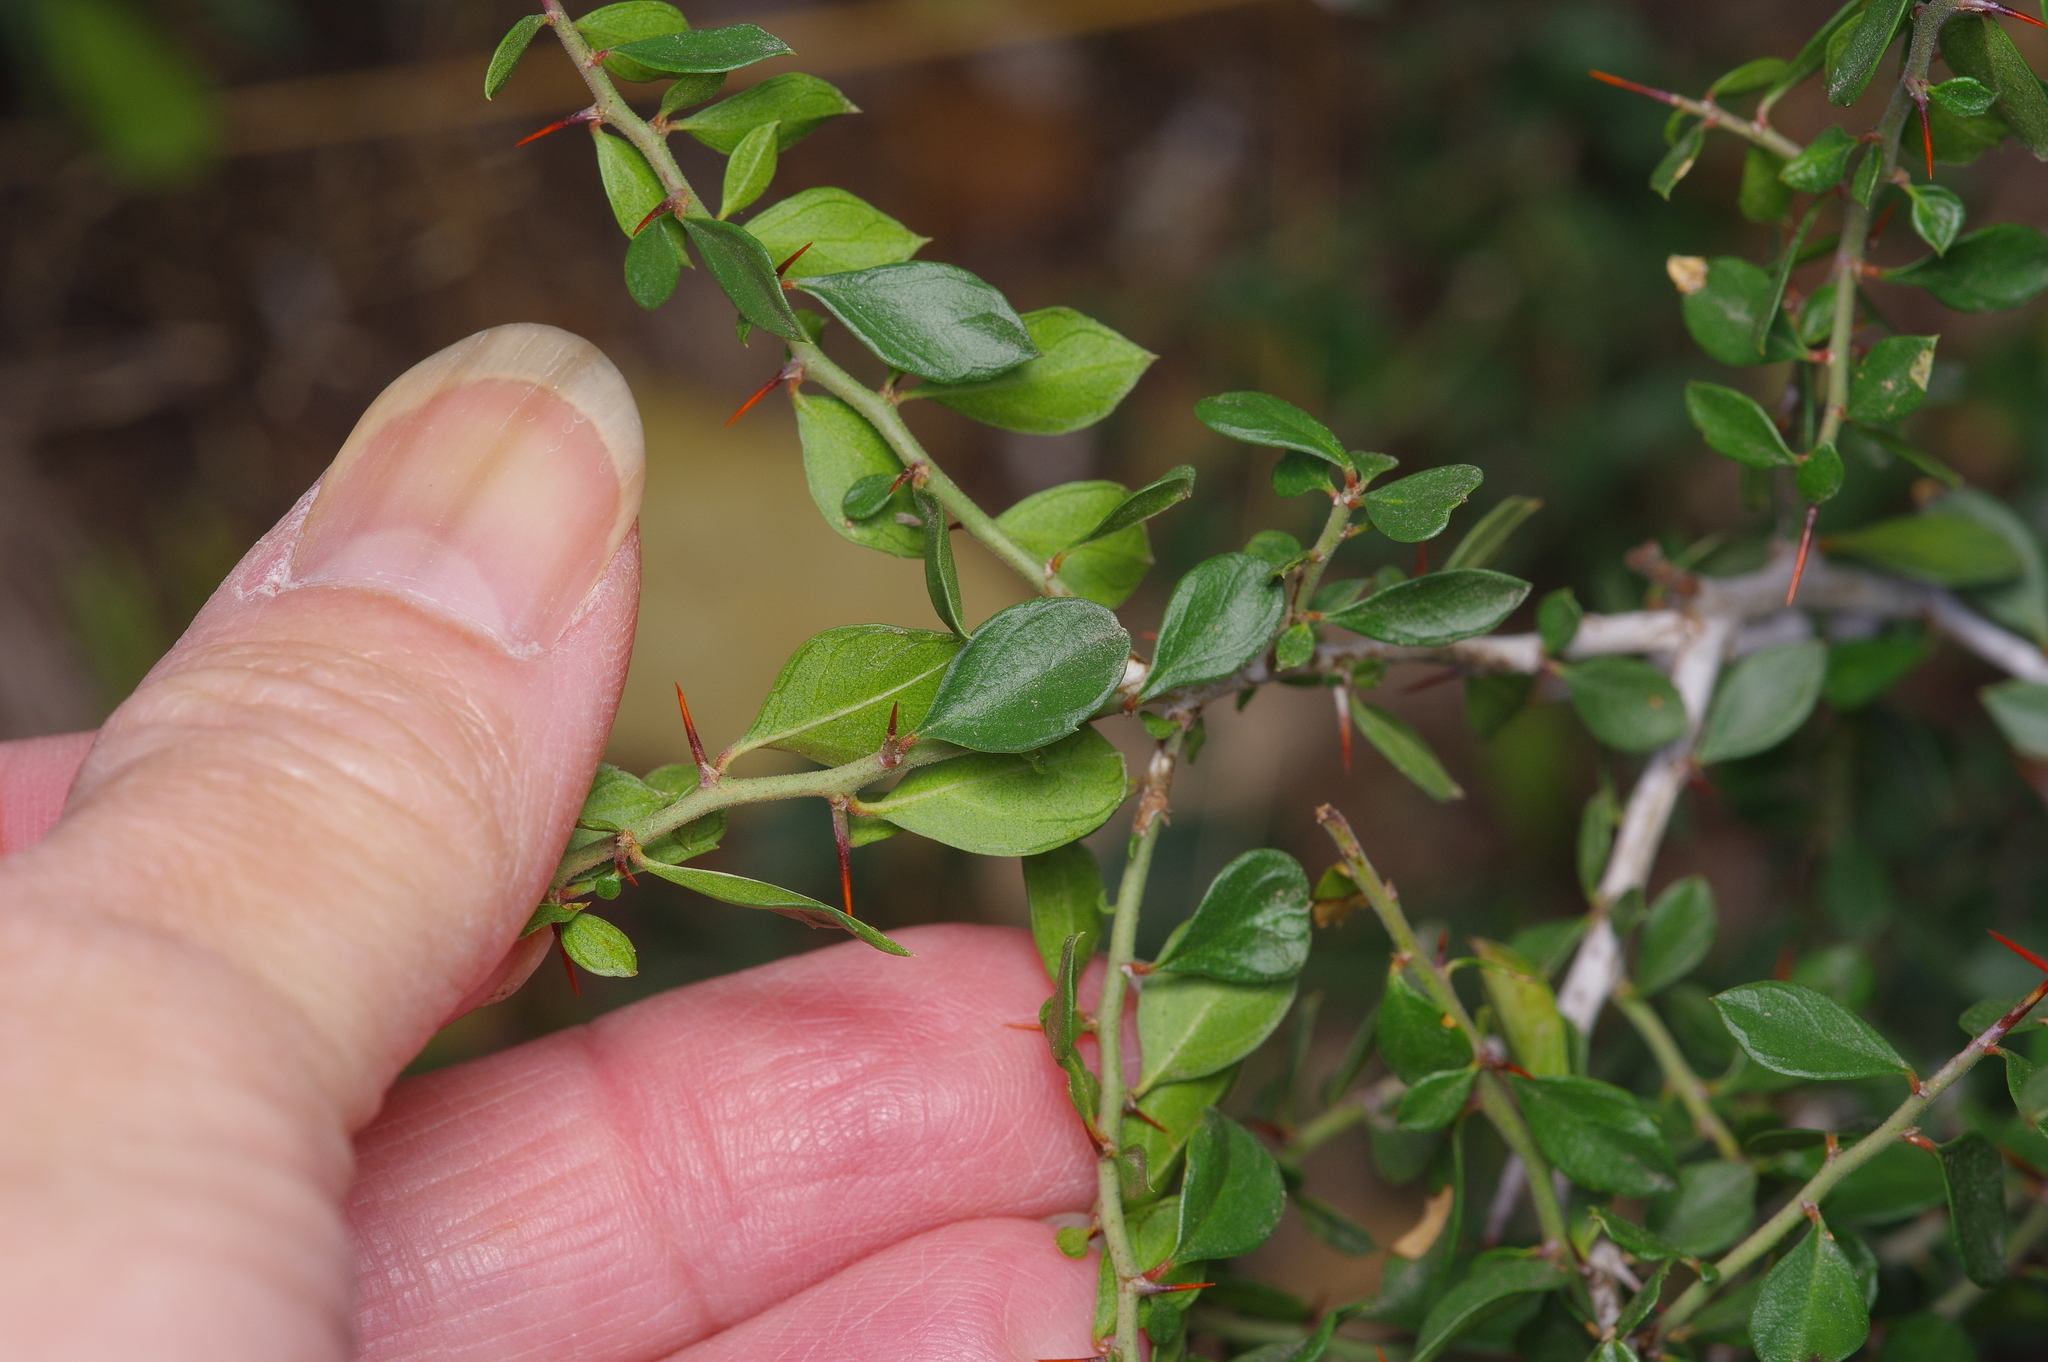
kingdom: Plantae
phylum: Tracheophyta
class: Magnoliopsida
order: Rosales
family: Rhamnaceae
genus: Condalia
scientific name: Condalia viridis
